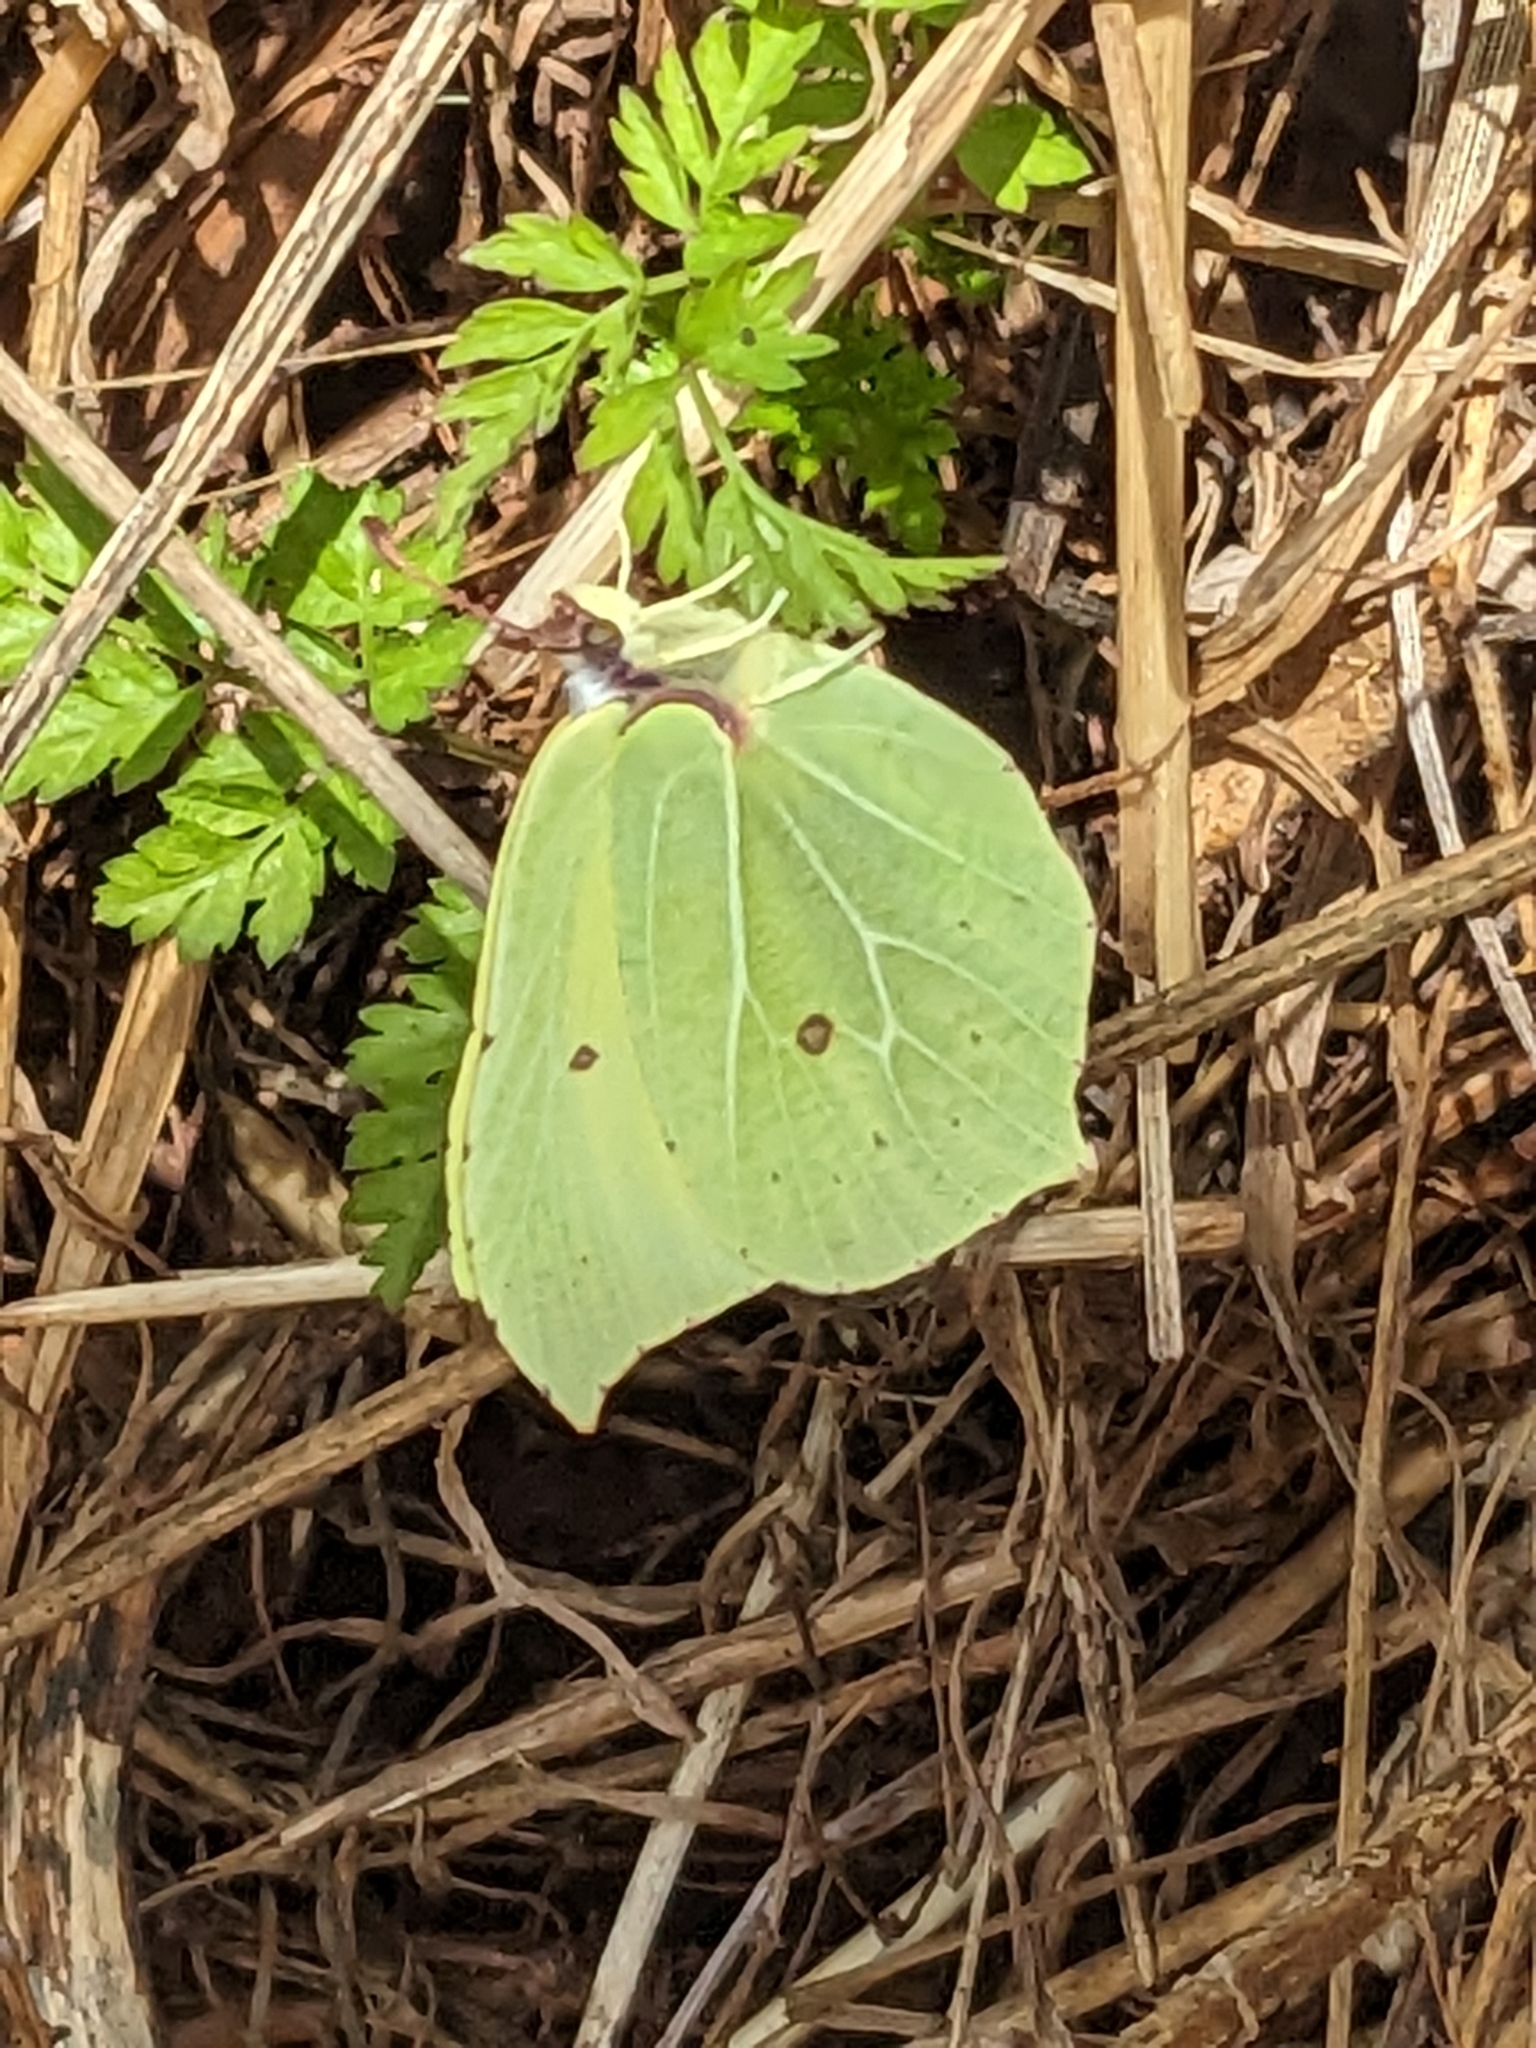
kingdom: Animalia
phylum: Arthropoda
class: Insecta
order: Lepidoptera
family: Pieridae
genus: Gonepteryx
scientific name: Gonepteryx rhamni
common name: Brimstone
